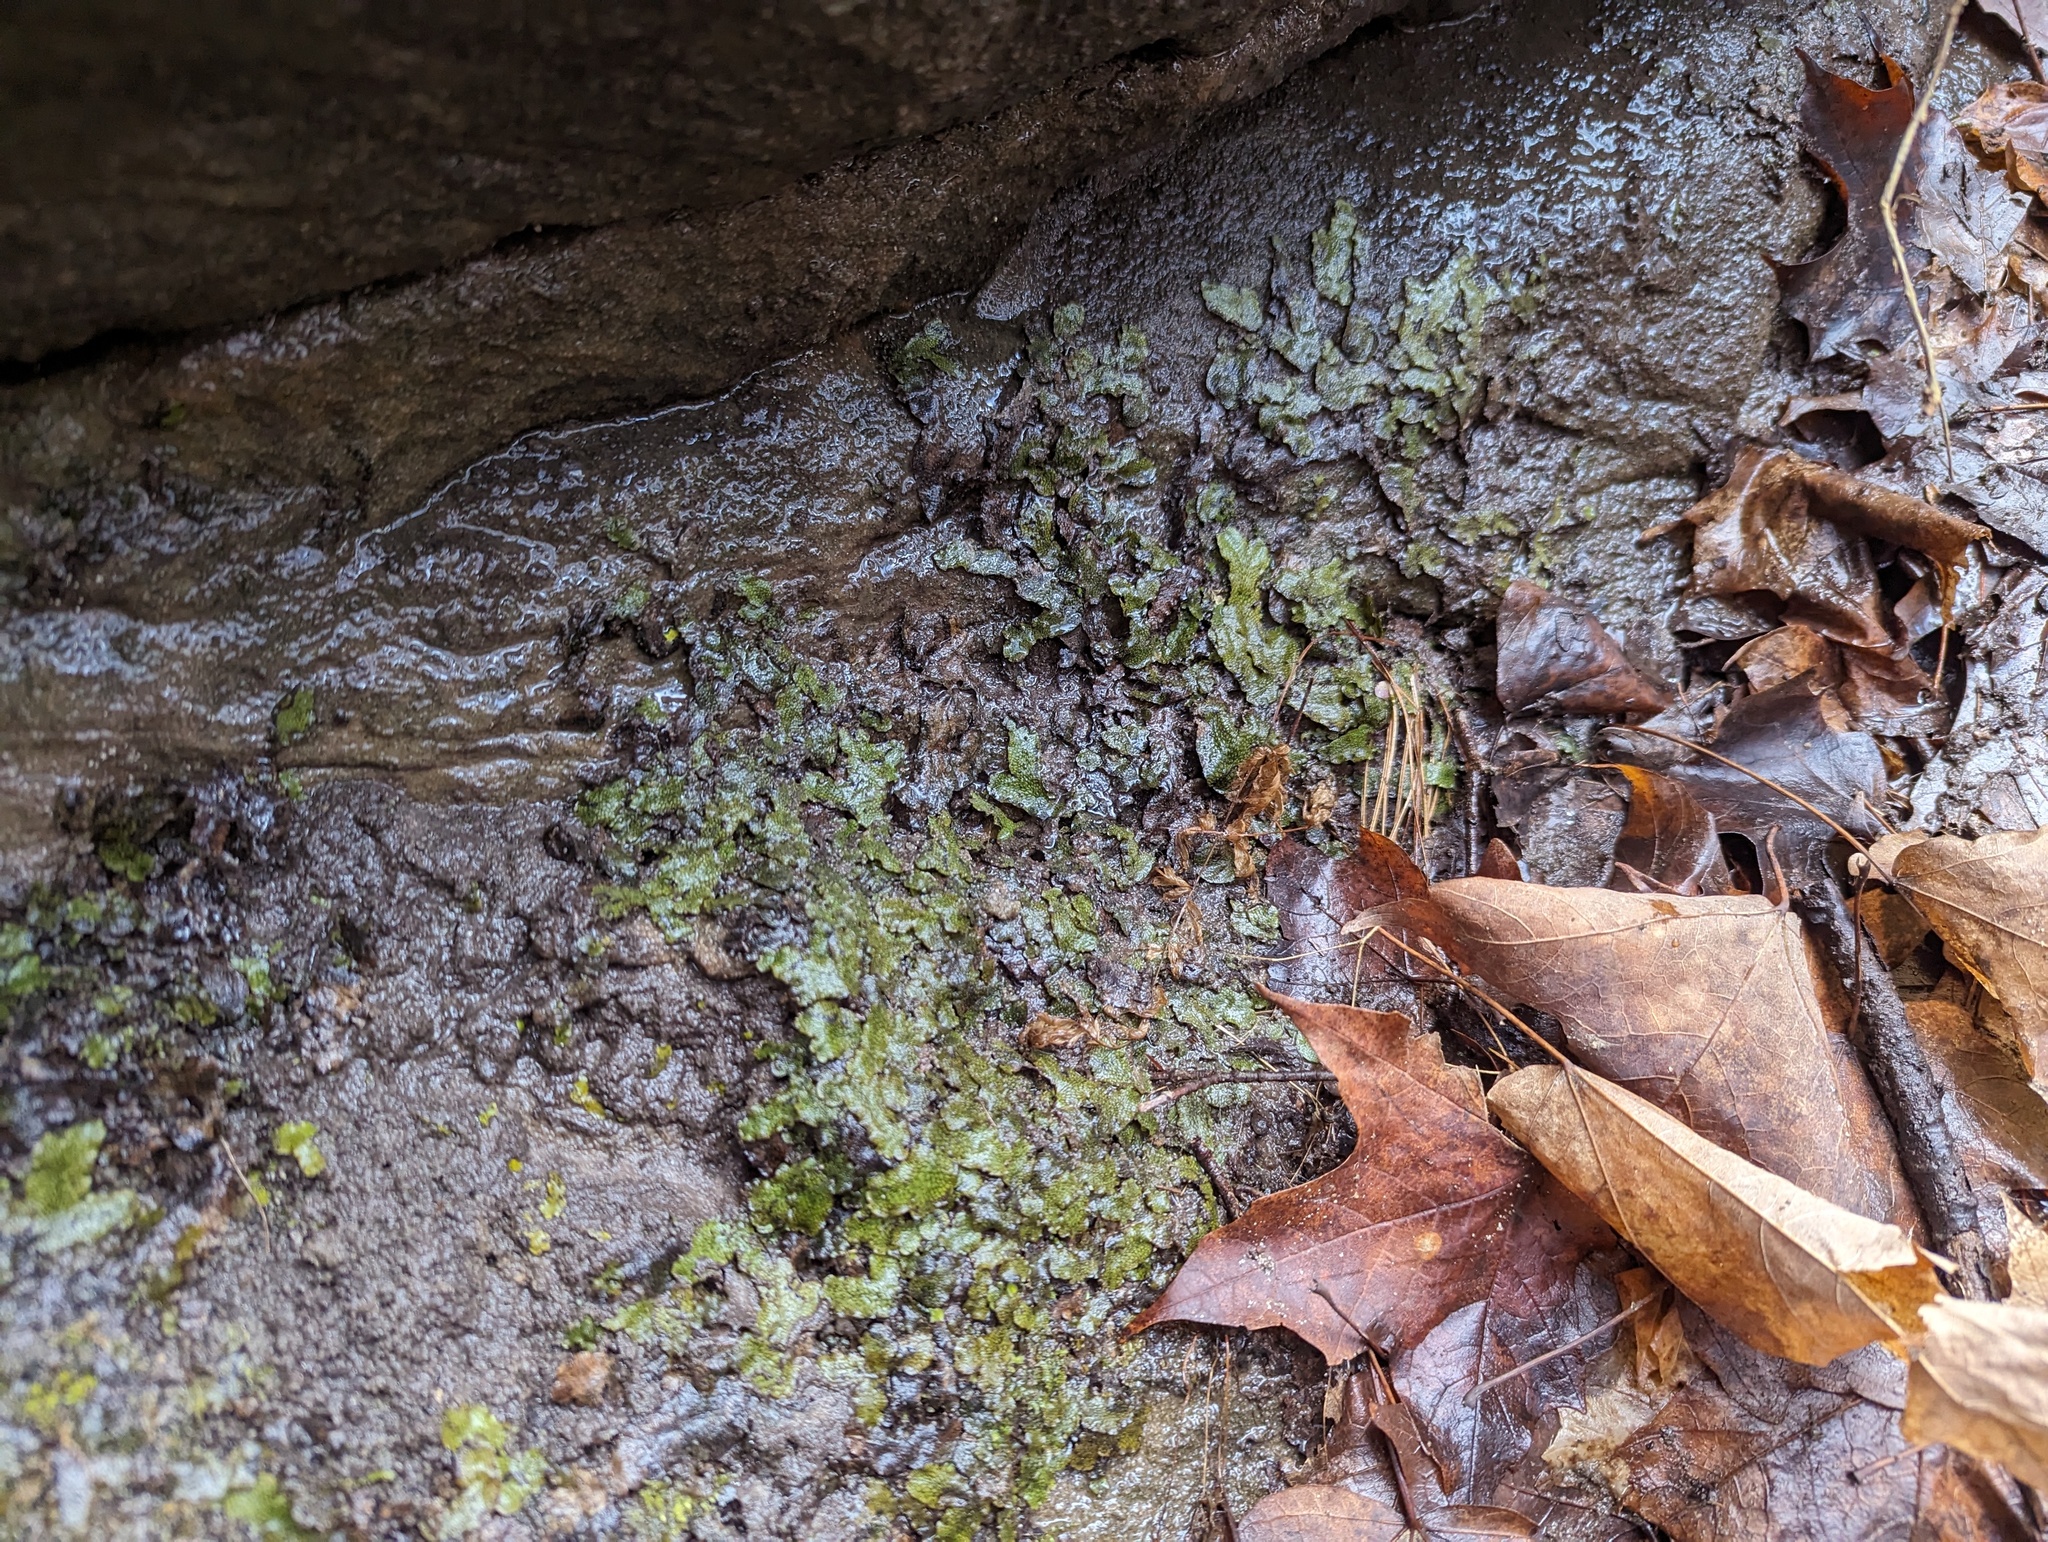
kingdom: Plantae
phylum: Marchantiophyta
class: Marchantiopsida
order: Marchantiales
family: Conocephalaceae
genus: Conocephalum
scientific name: Conocephalum salebrosum
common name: Cat-tongue liverwort
